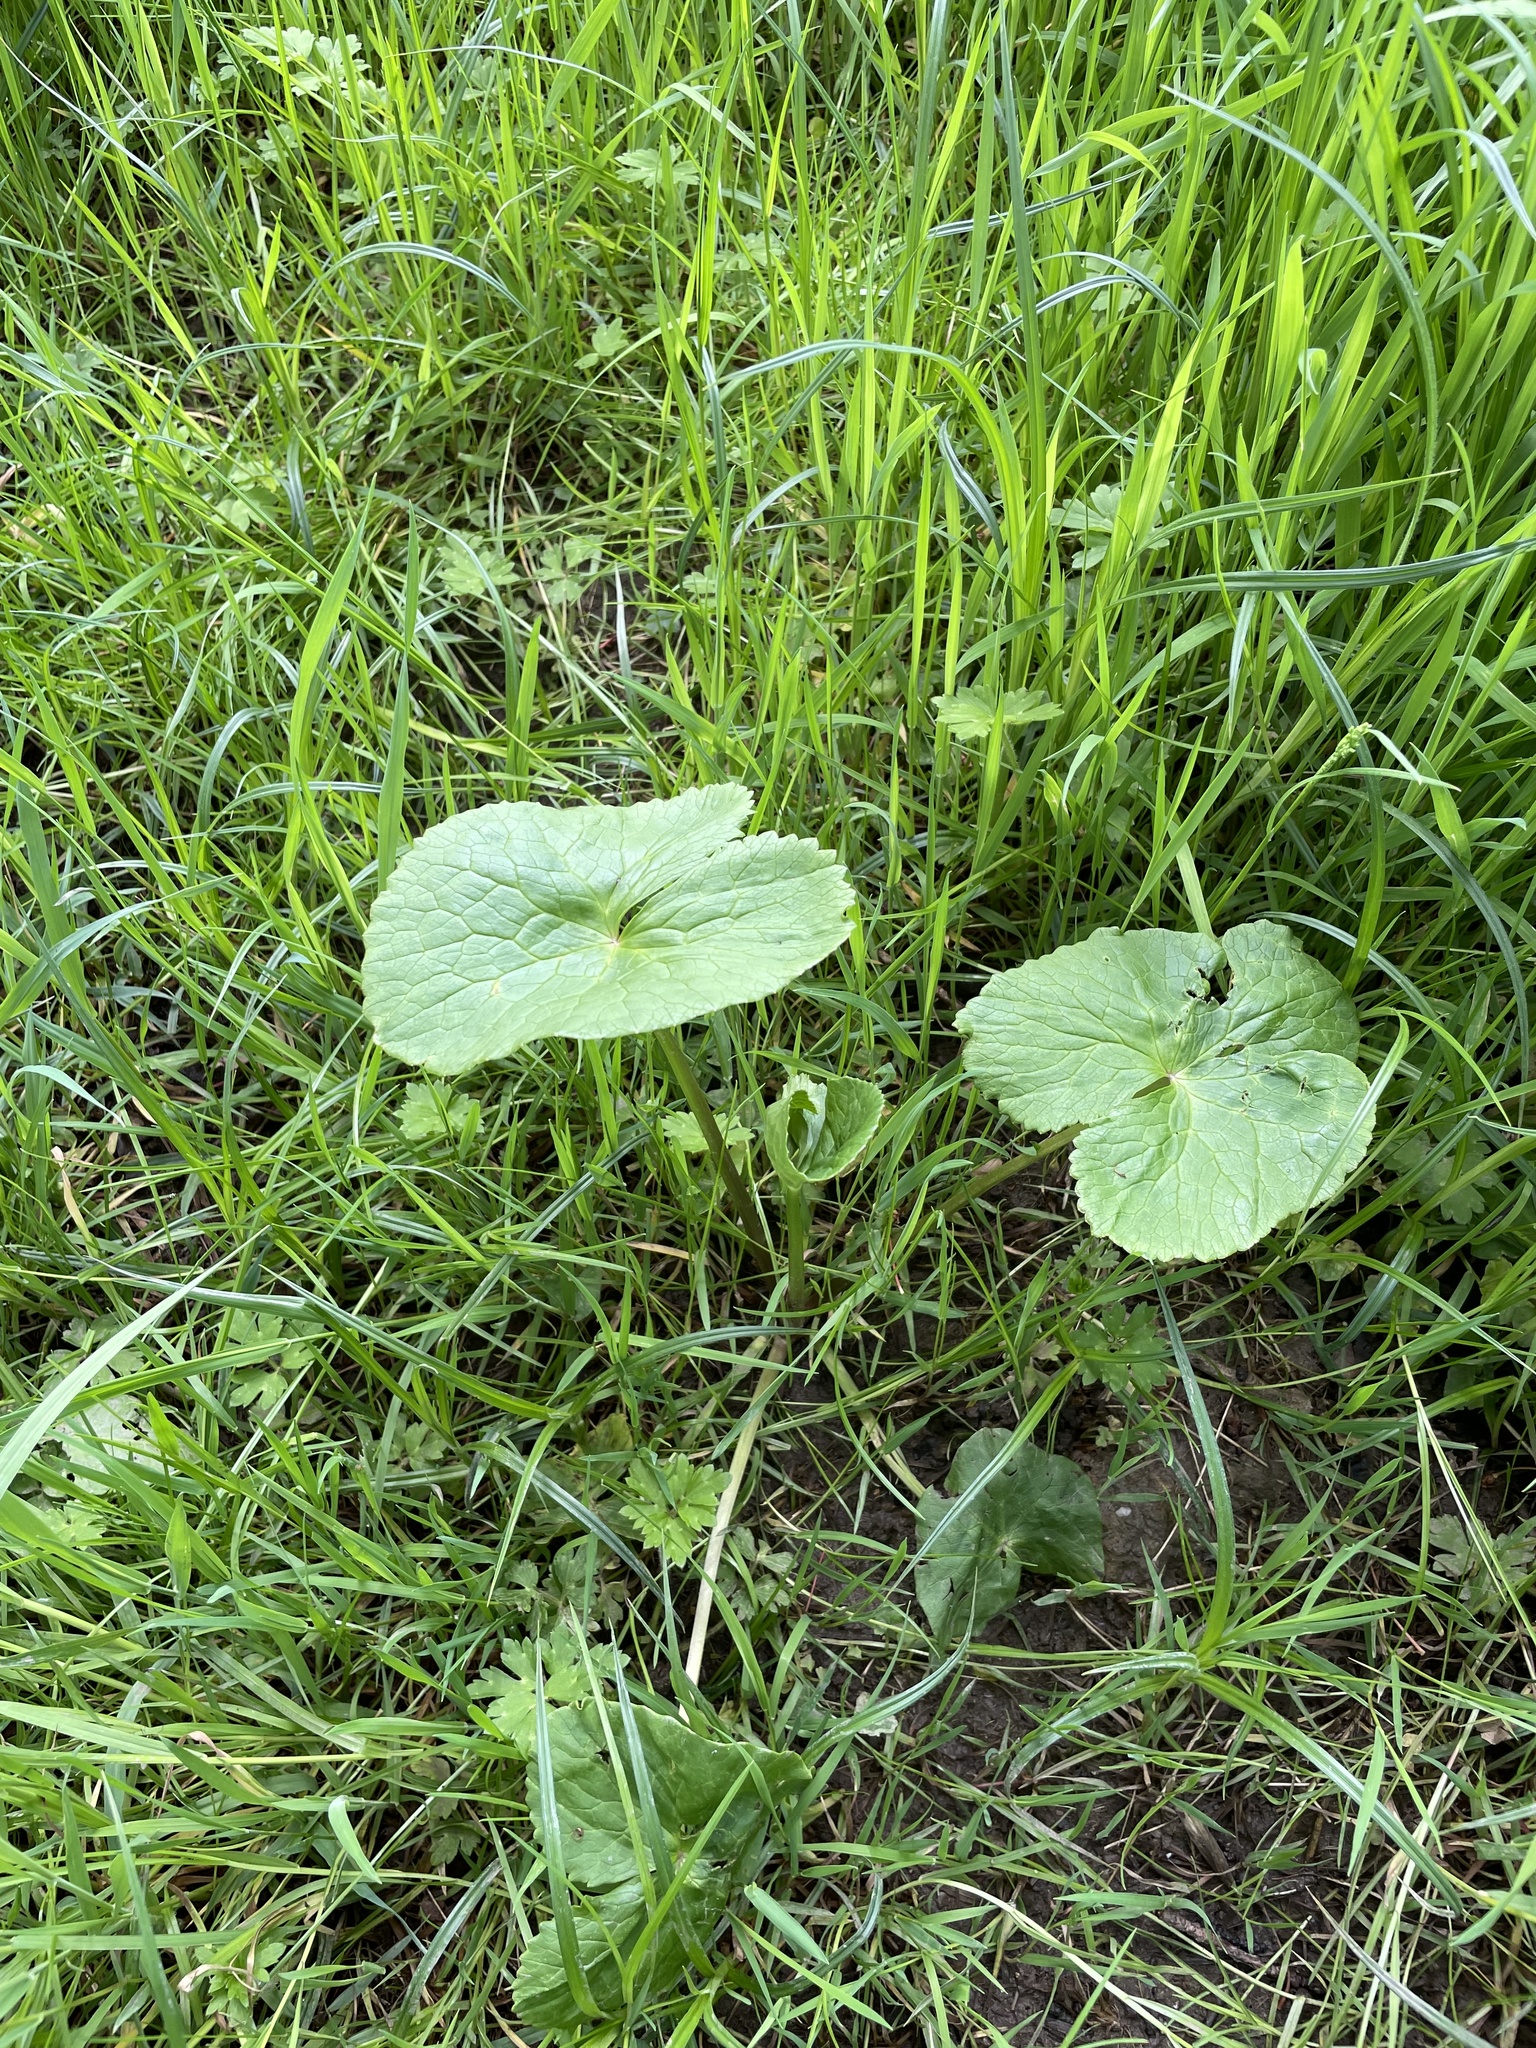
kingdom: Plantae
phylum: Tracheophyta
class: Magnoliopsida
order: Ranunculales
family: Ranunculaceae
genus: Caltha
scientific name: Caltha palustris
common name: Marsh marigold
